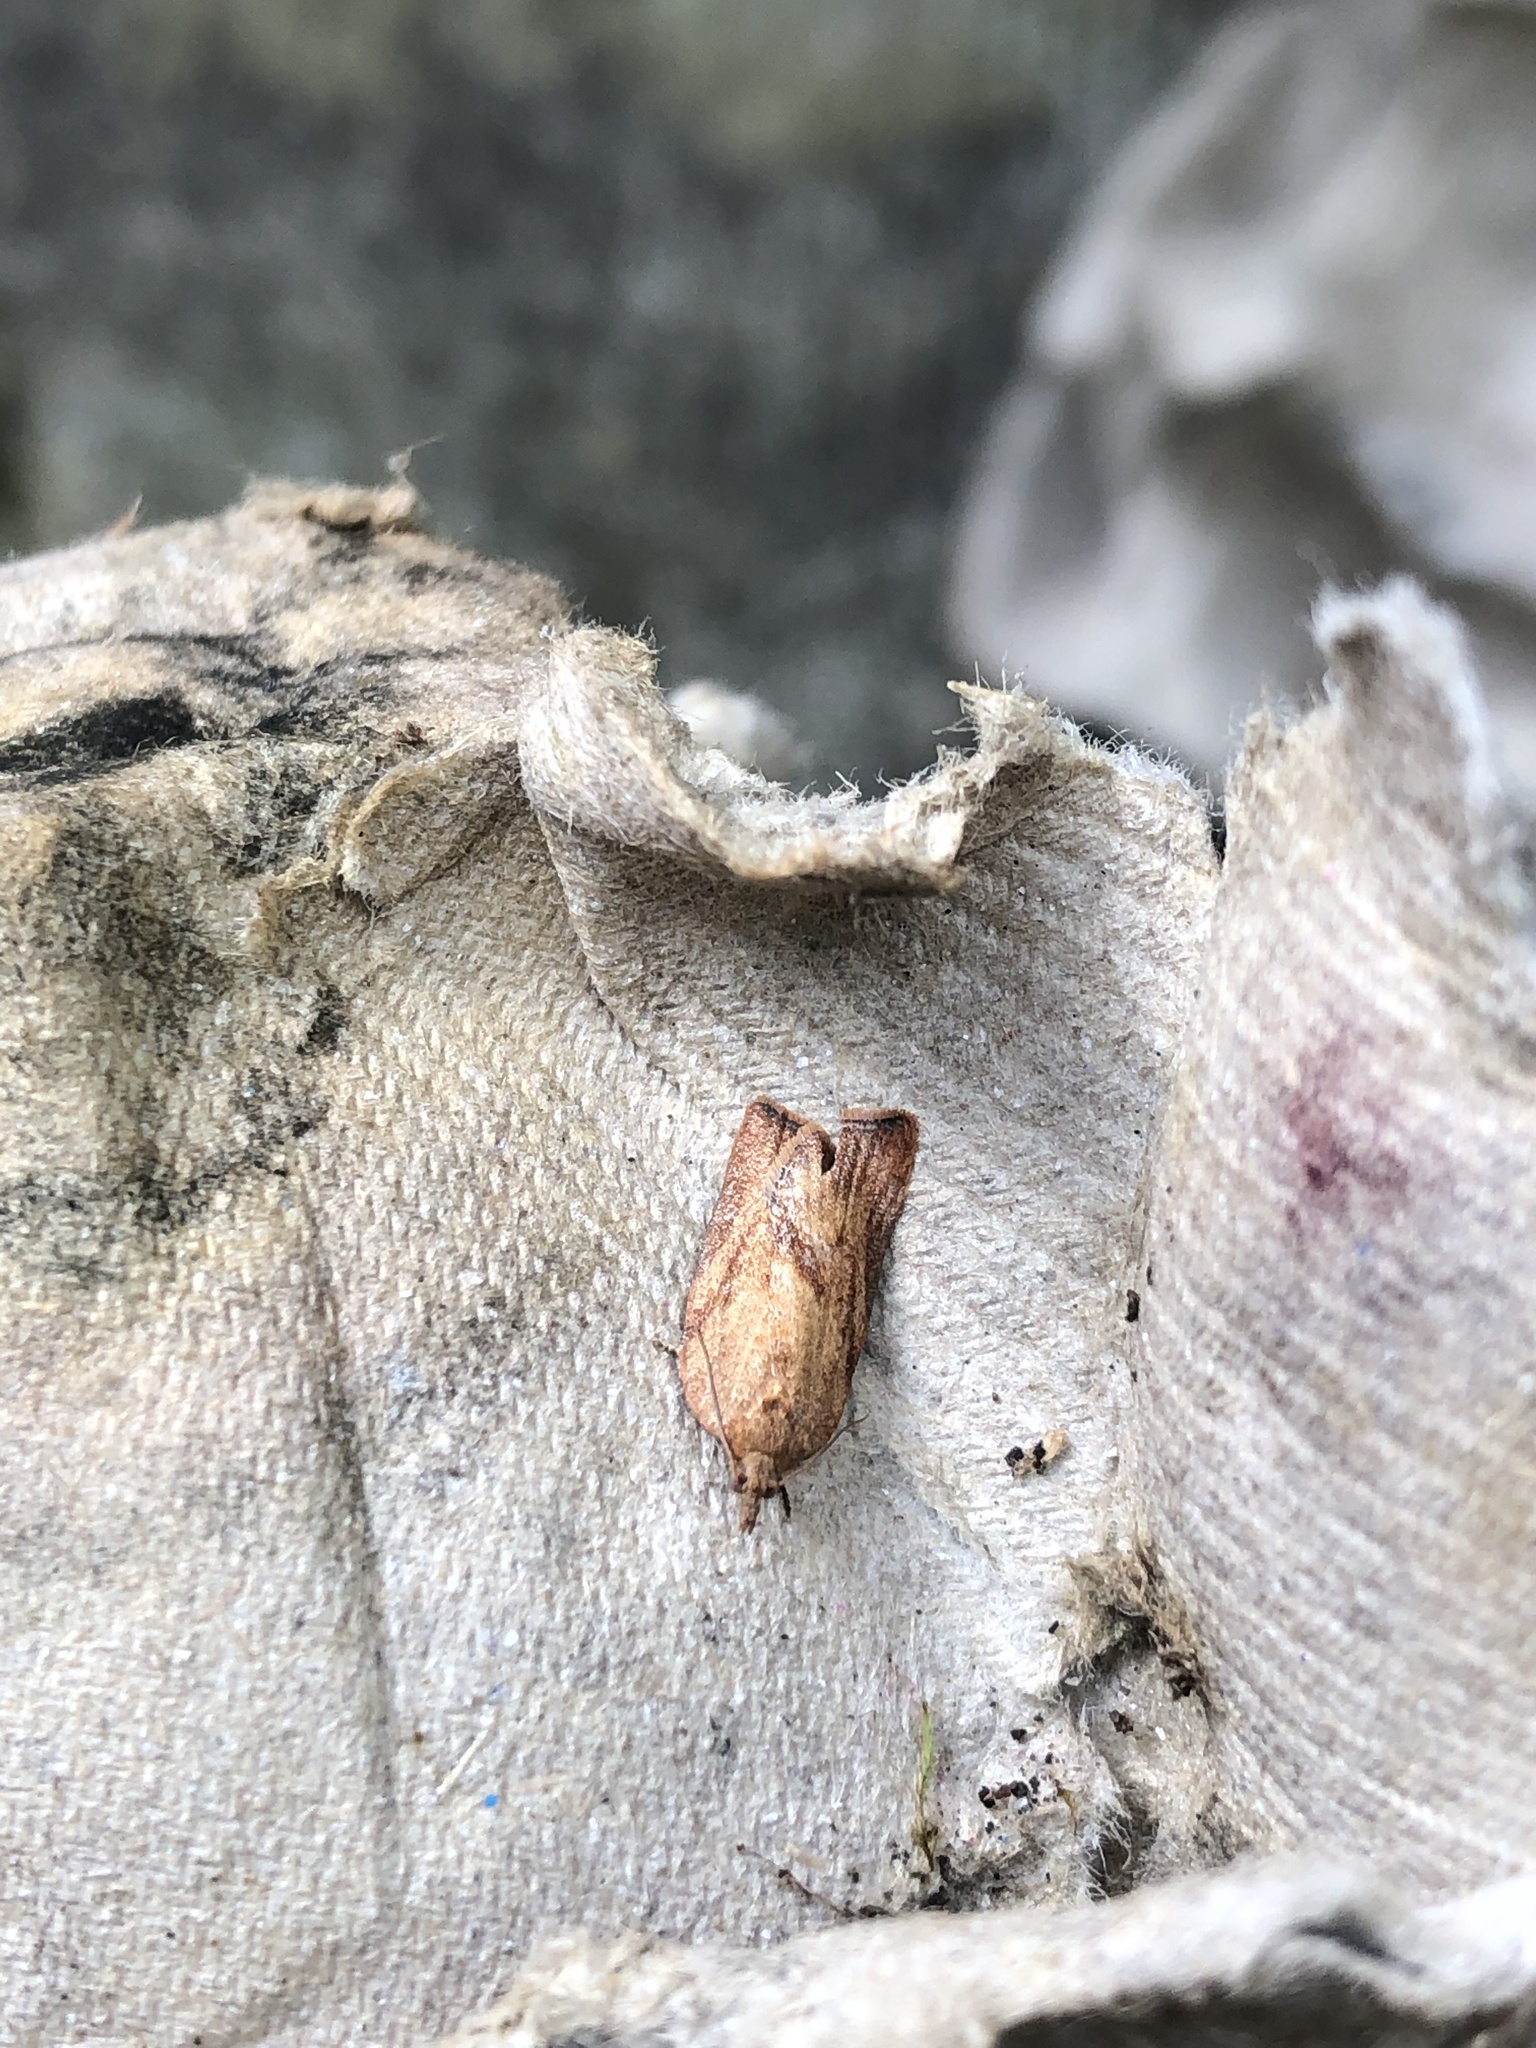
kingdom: Animalia
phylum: Arthropoda
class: Insecta
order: Lepidoptera
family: Tortricidae
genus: Epiphyas
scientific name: Epiphyas postvittana
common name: Light brown apple moth
